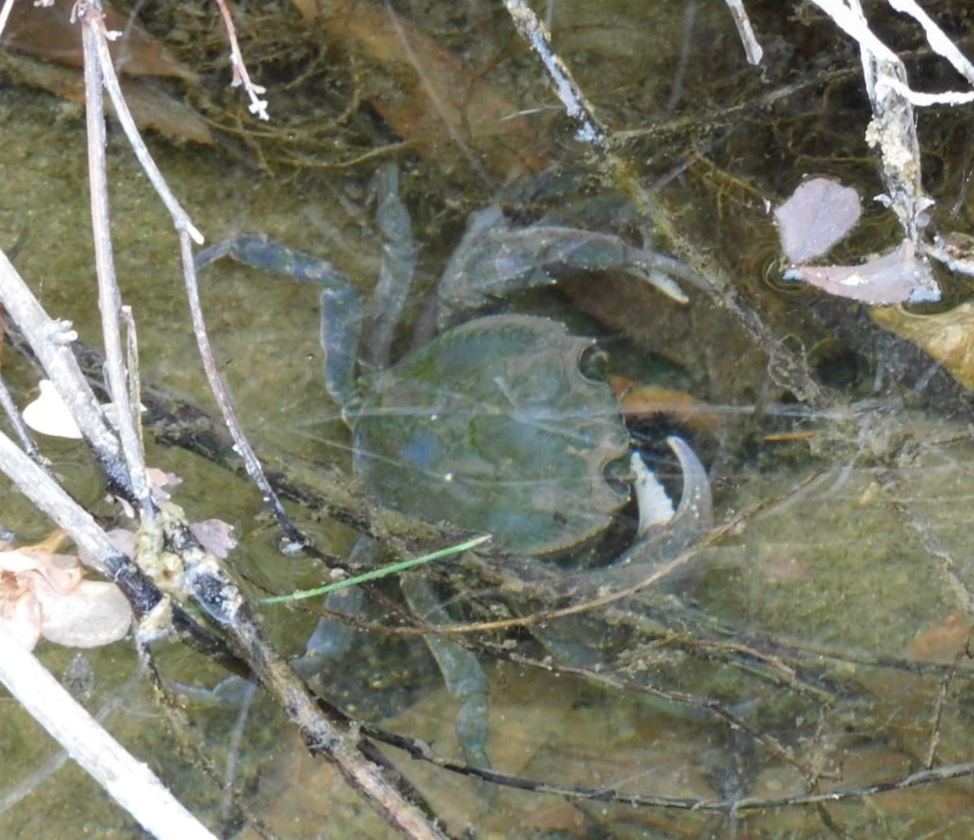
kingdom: Animalia
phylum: Arthropoda
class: Malacostraca
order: Decapoda
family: Potamidae
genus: Potamon
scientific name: Potamon fluviatile
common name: Italian freshwater crab
